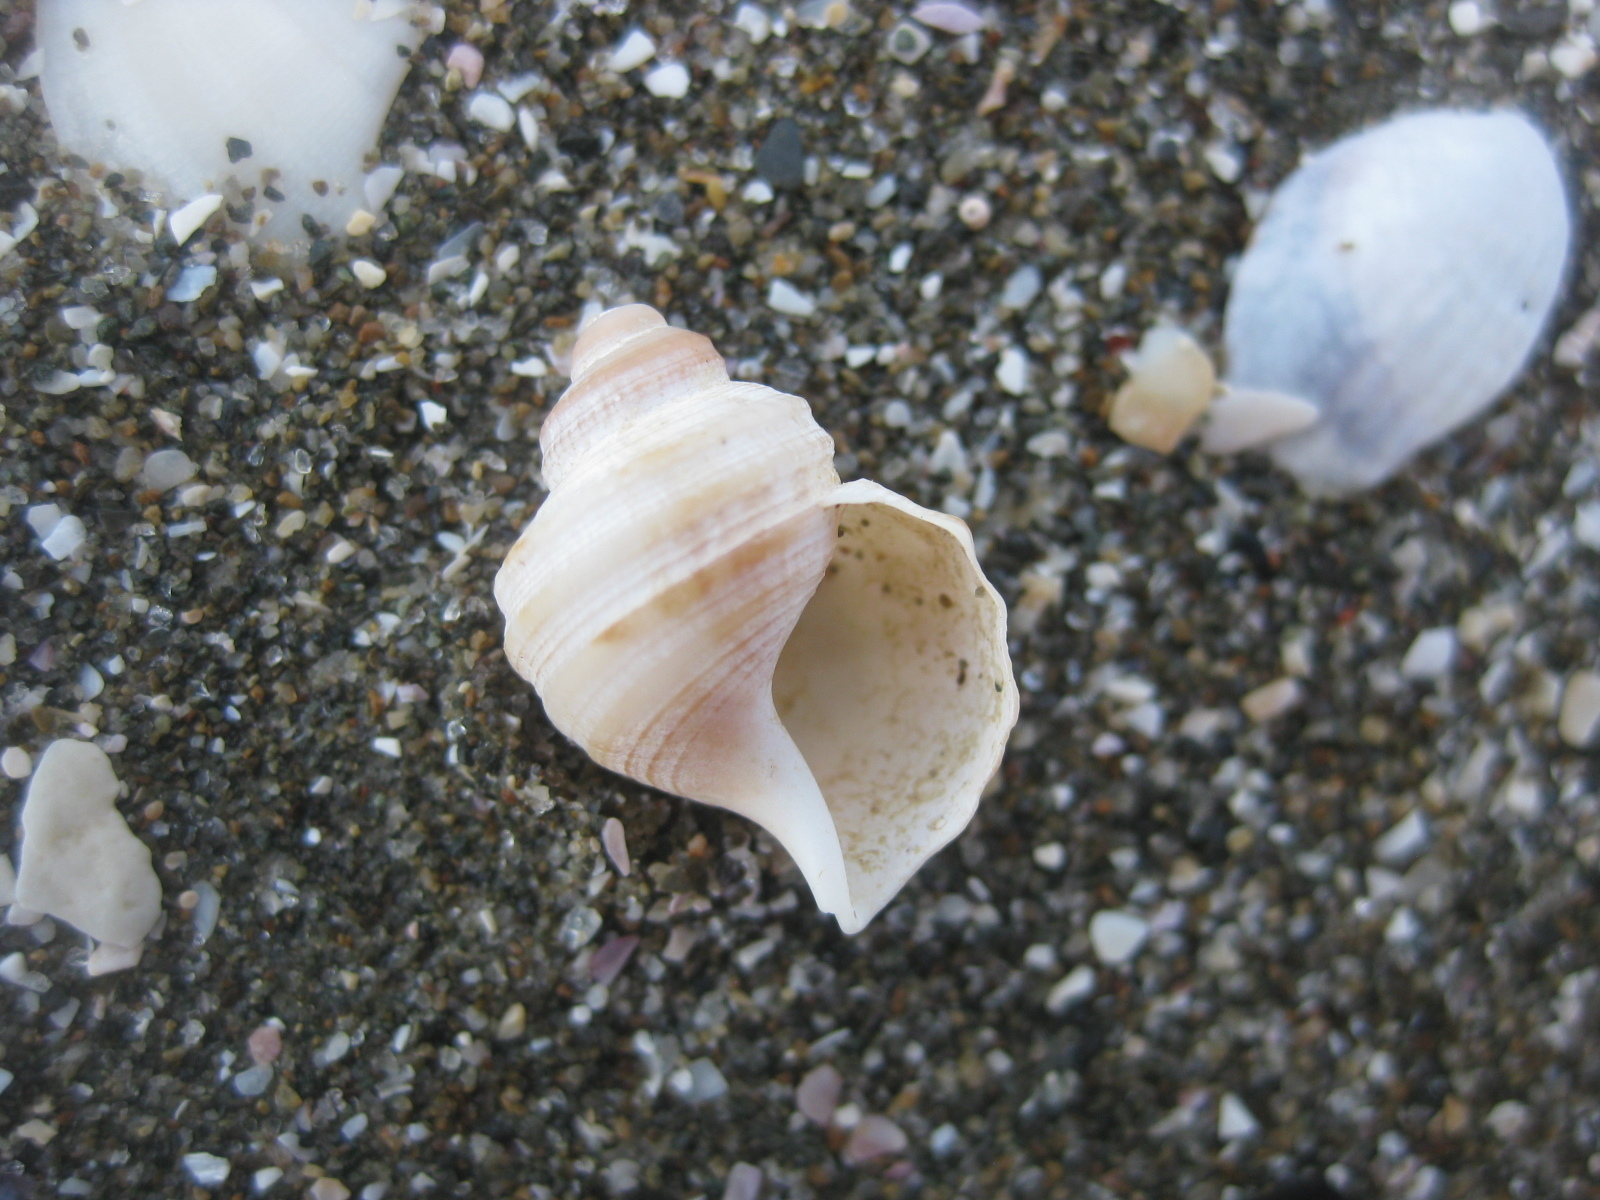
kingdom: Animalia
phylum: Mollusca
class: Gastropoda
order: Littorinimorpha
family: Struthiolariidae
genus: Pelicaria
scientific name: Pelicaria vermis
